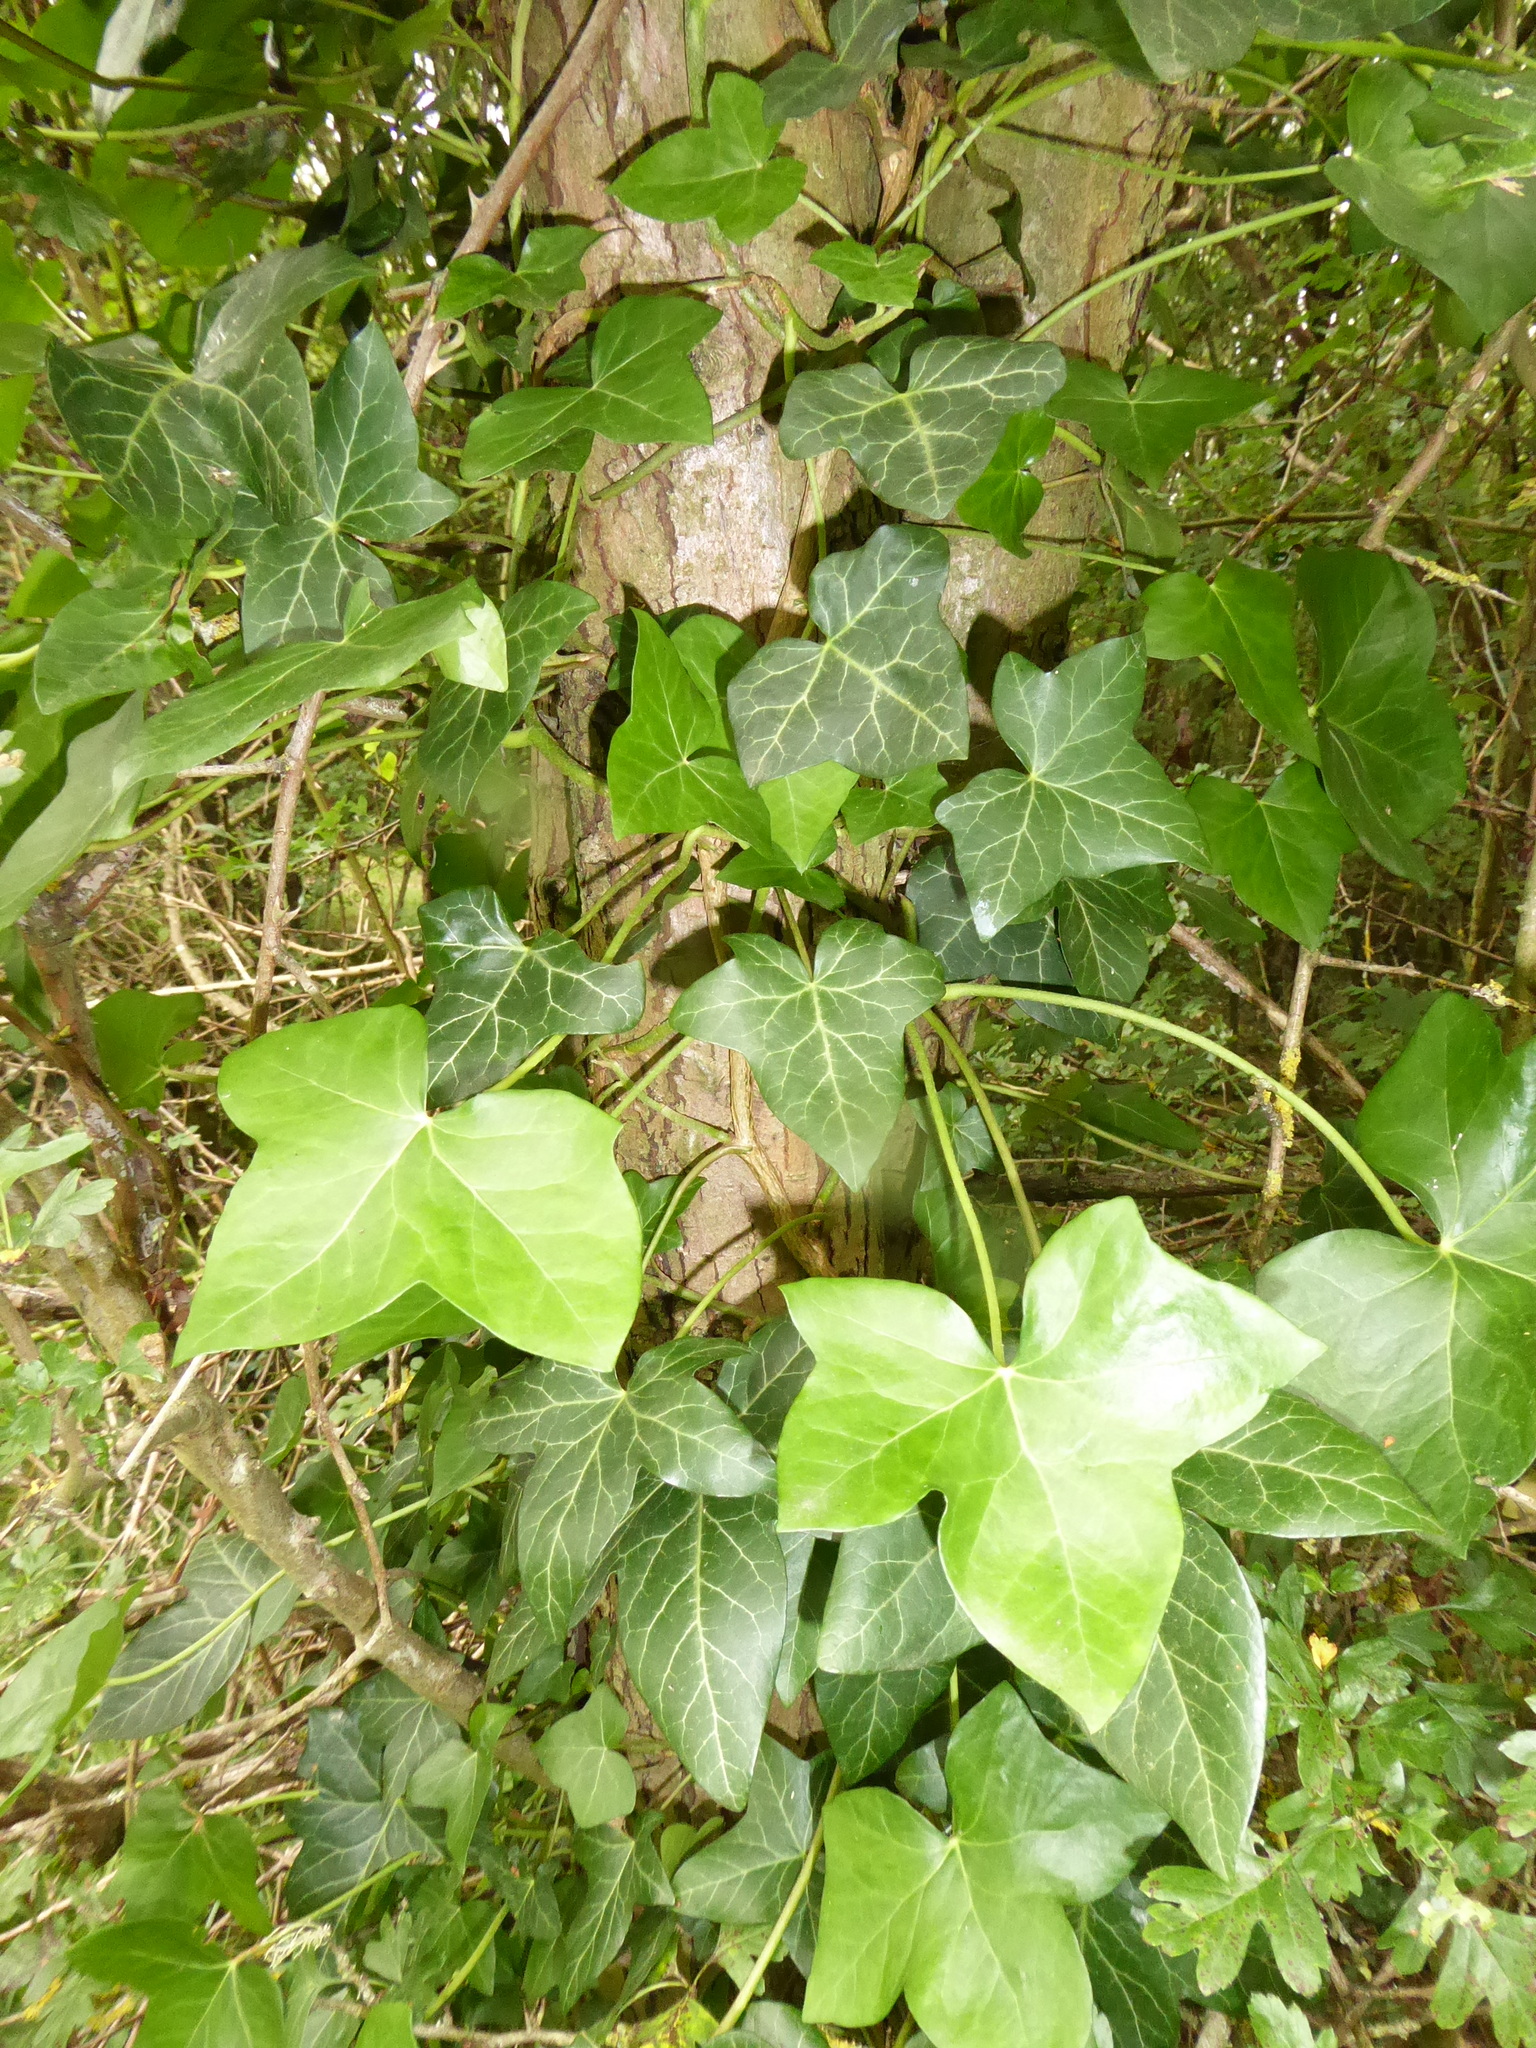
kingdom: Plantae
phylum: Tracheophyta
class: Magnoliopsida
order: Apiales
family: Araliaceae
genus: Hedera
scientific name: Hedera helix
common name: Ivy
